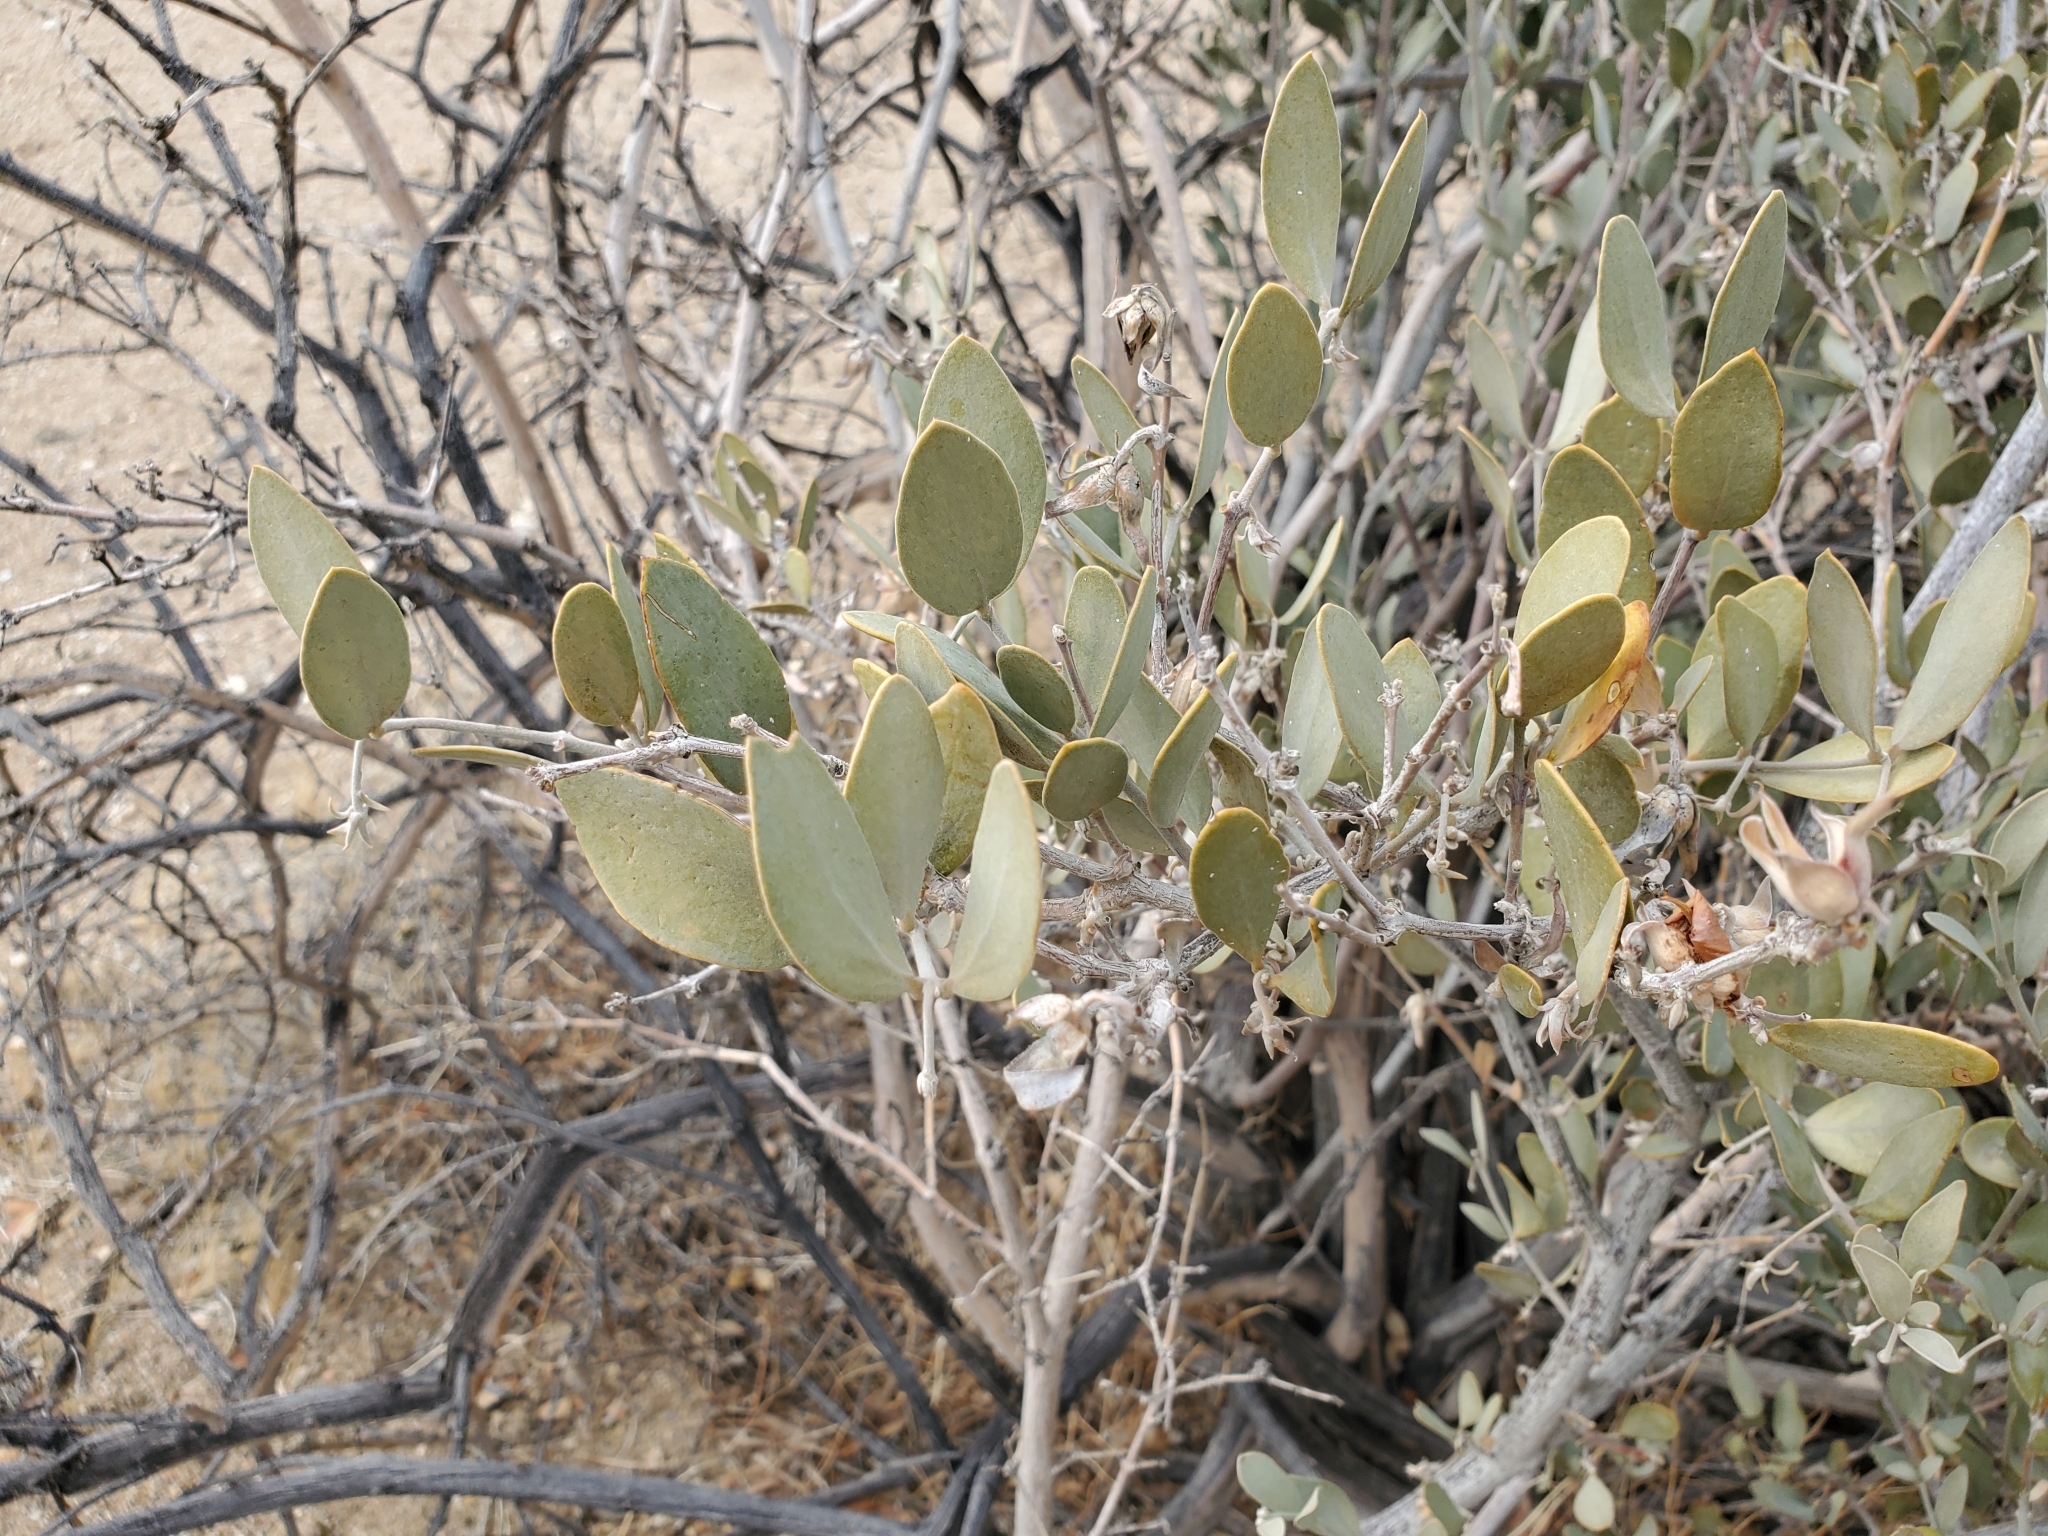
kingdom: Plantae
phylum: Tracheophyta
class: Magnoliopsida
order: Caryophyllales
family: Simmondsiaceae
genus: Simmondsia
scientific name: Simmondsia chinensis
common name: Jojoba
